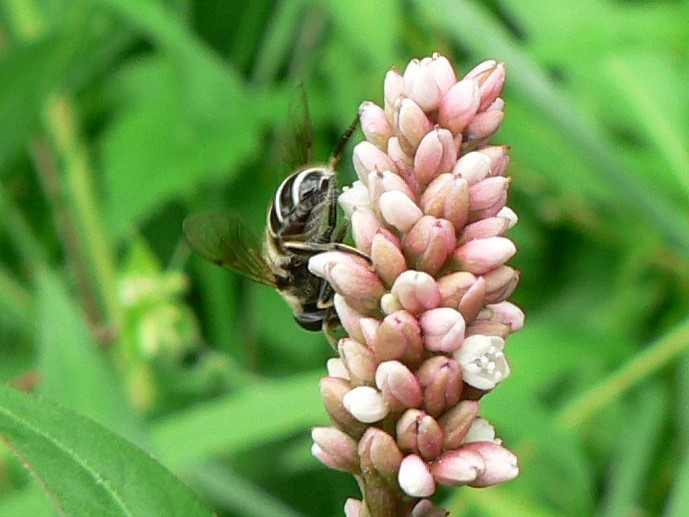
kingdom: Animalia
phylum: Arthropoda
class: Insecta
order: Diptera
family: Syrphidae
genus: Eristalis
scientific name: Eristalis arbustorum
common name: Hover fly
